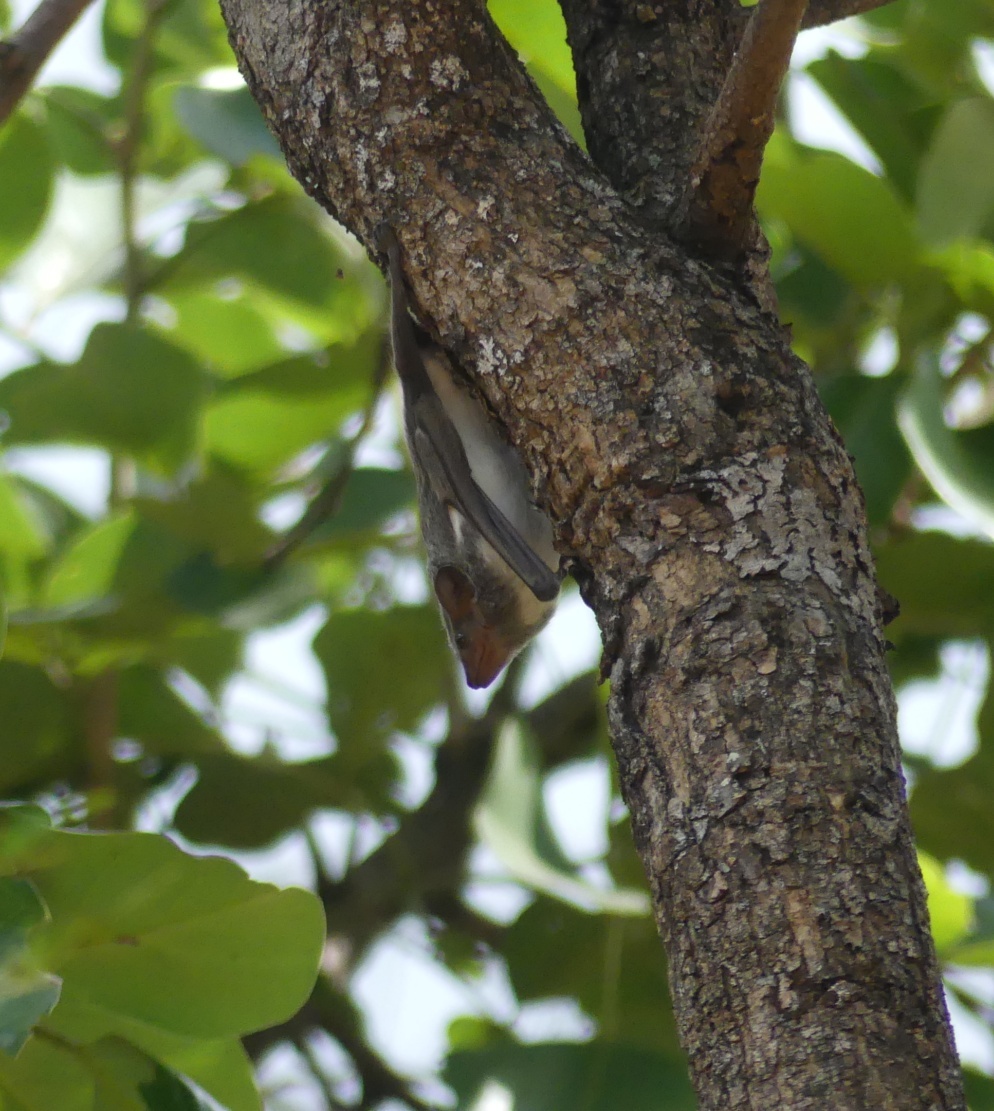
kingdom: Animalia
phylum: Chordata
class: Mammalia
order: Chiroptera
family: Emballonuridae
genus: Taphozous
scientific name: Taphozous mauritianus
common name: Mauritian tomb bat
